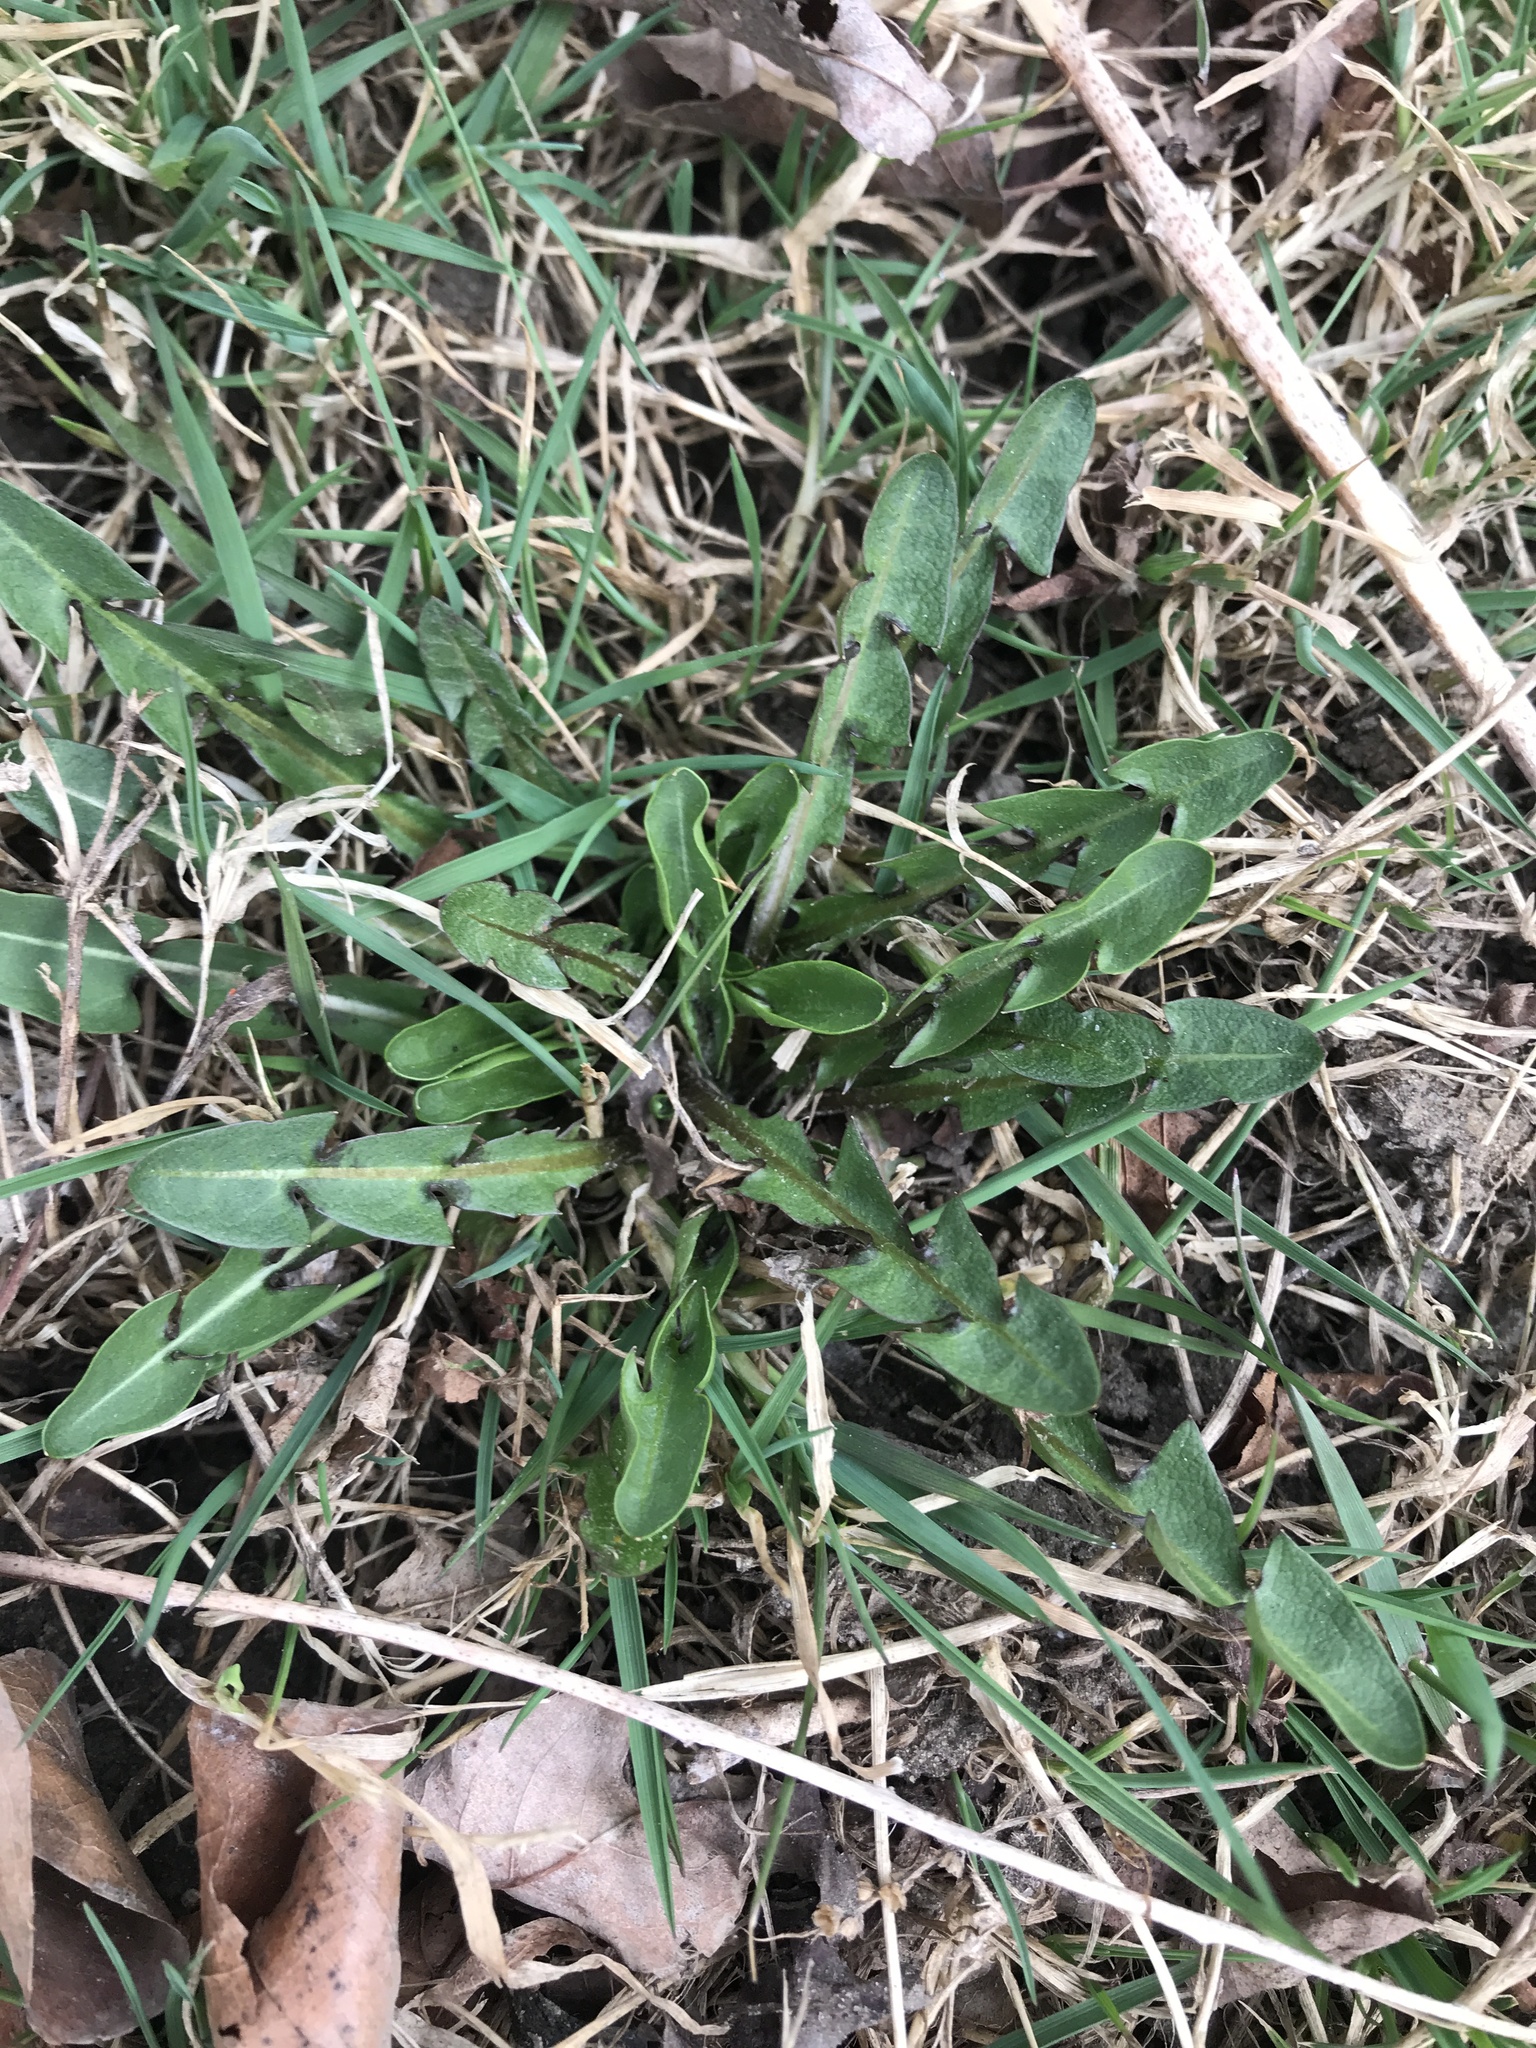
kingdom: Plantae
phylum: Tracheophyta
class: Magnoliopsida
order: Asterales
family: Asteraceae
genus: Taraxacum
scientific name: Taraxacum officinale
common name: Common dandelion
